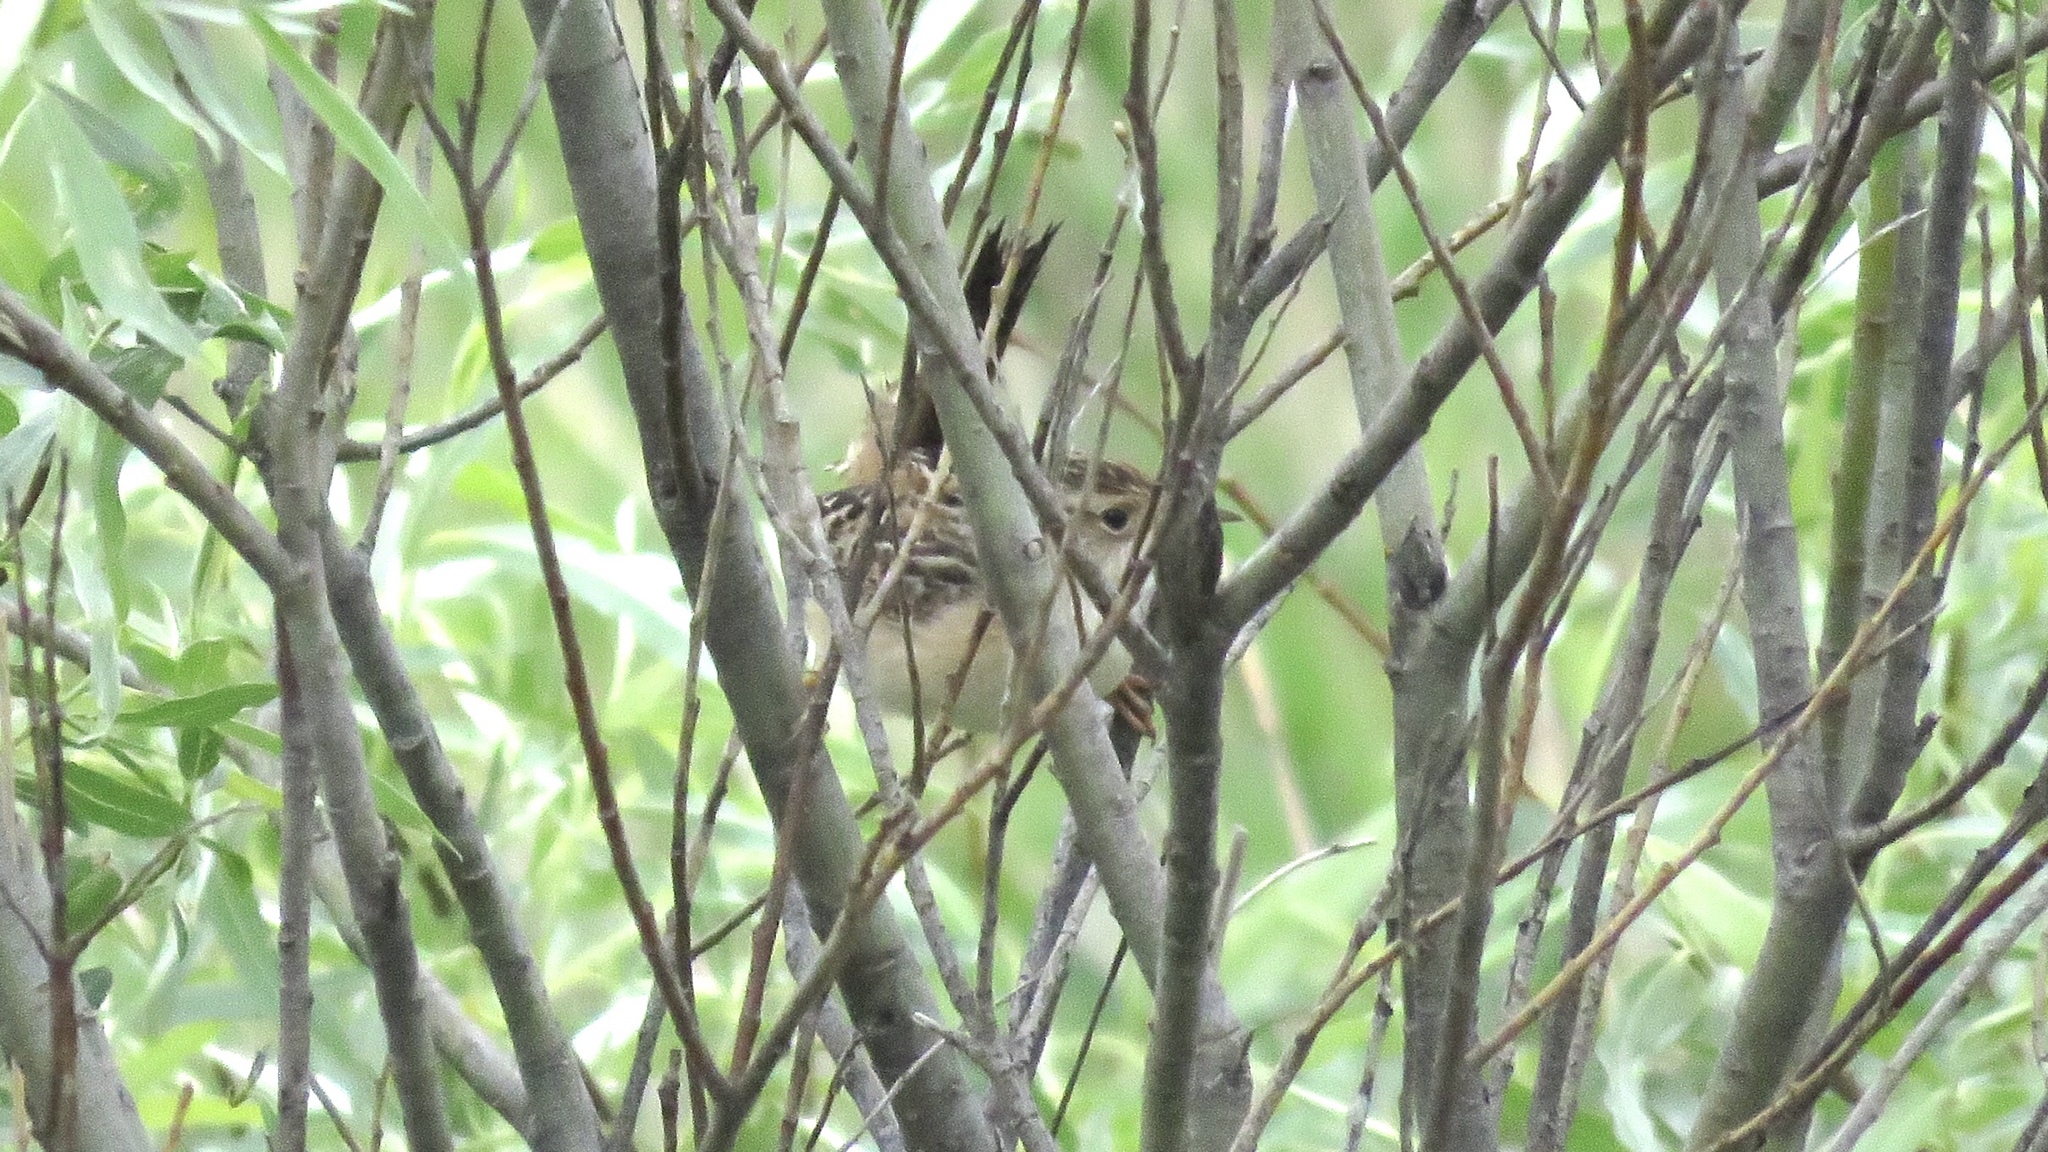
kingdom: Animalia
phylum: Chordata
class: Aves
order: Passeriformes
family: Troglodytidae
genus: Cistothorus
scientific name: Cistothorus platensis
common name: Sedge wren
